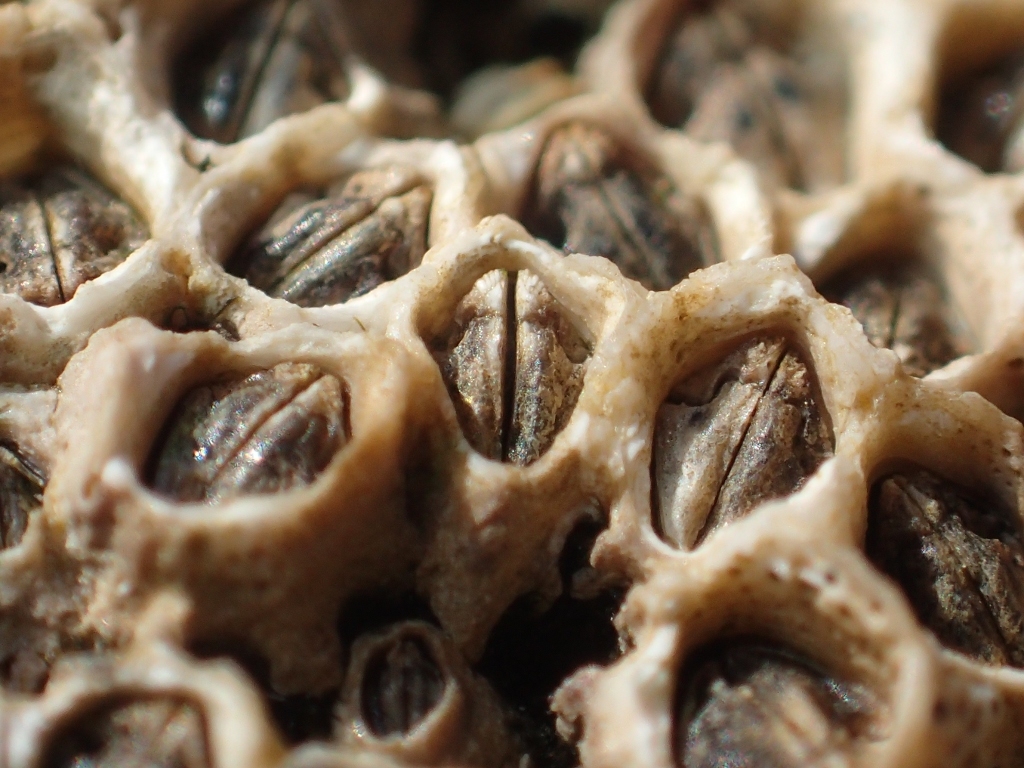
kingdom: Animalia
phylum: Arthropoda
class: Maxillopoda
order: Sessilia
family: Chthamalidae
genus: Chamaesipho
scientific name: Chamaesipho columna
